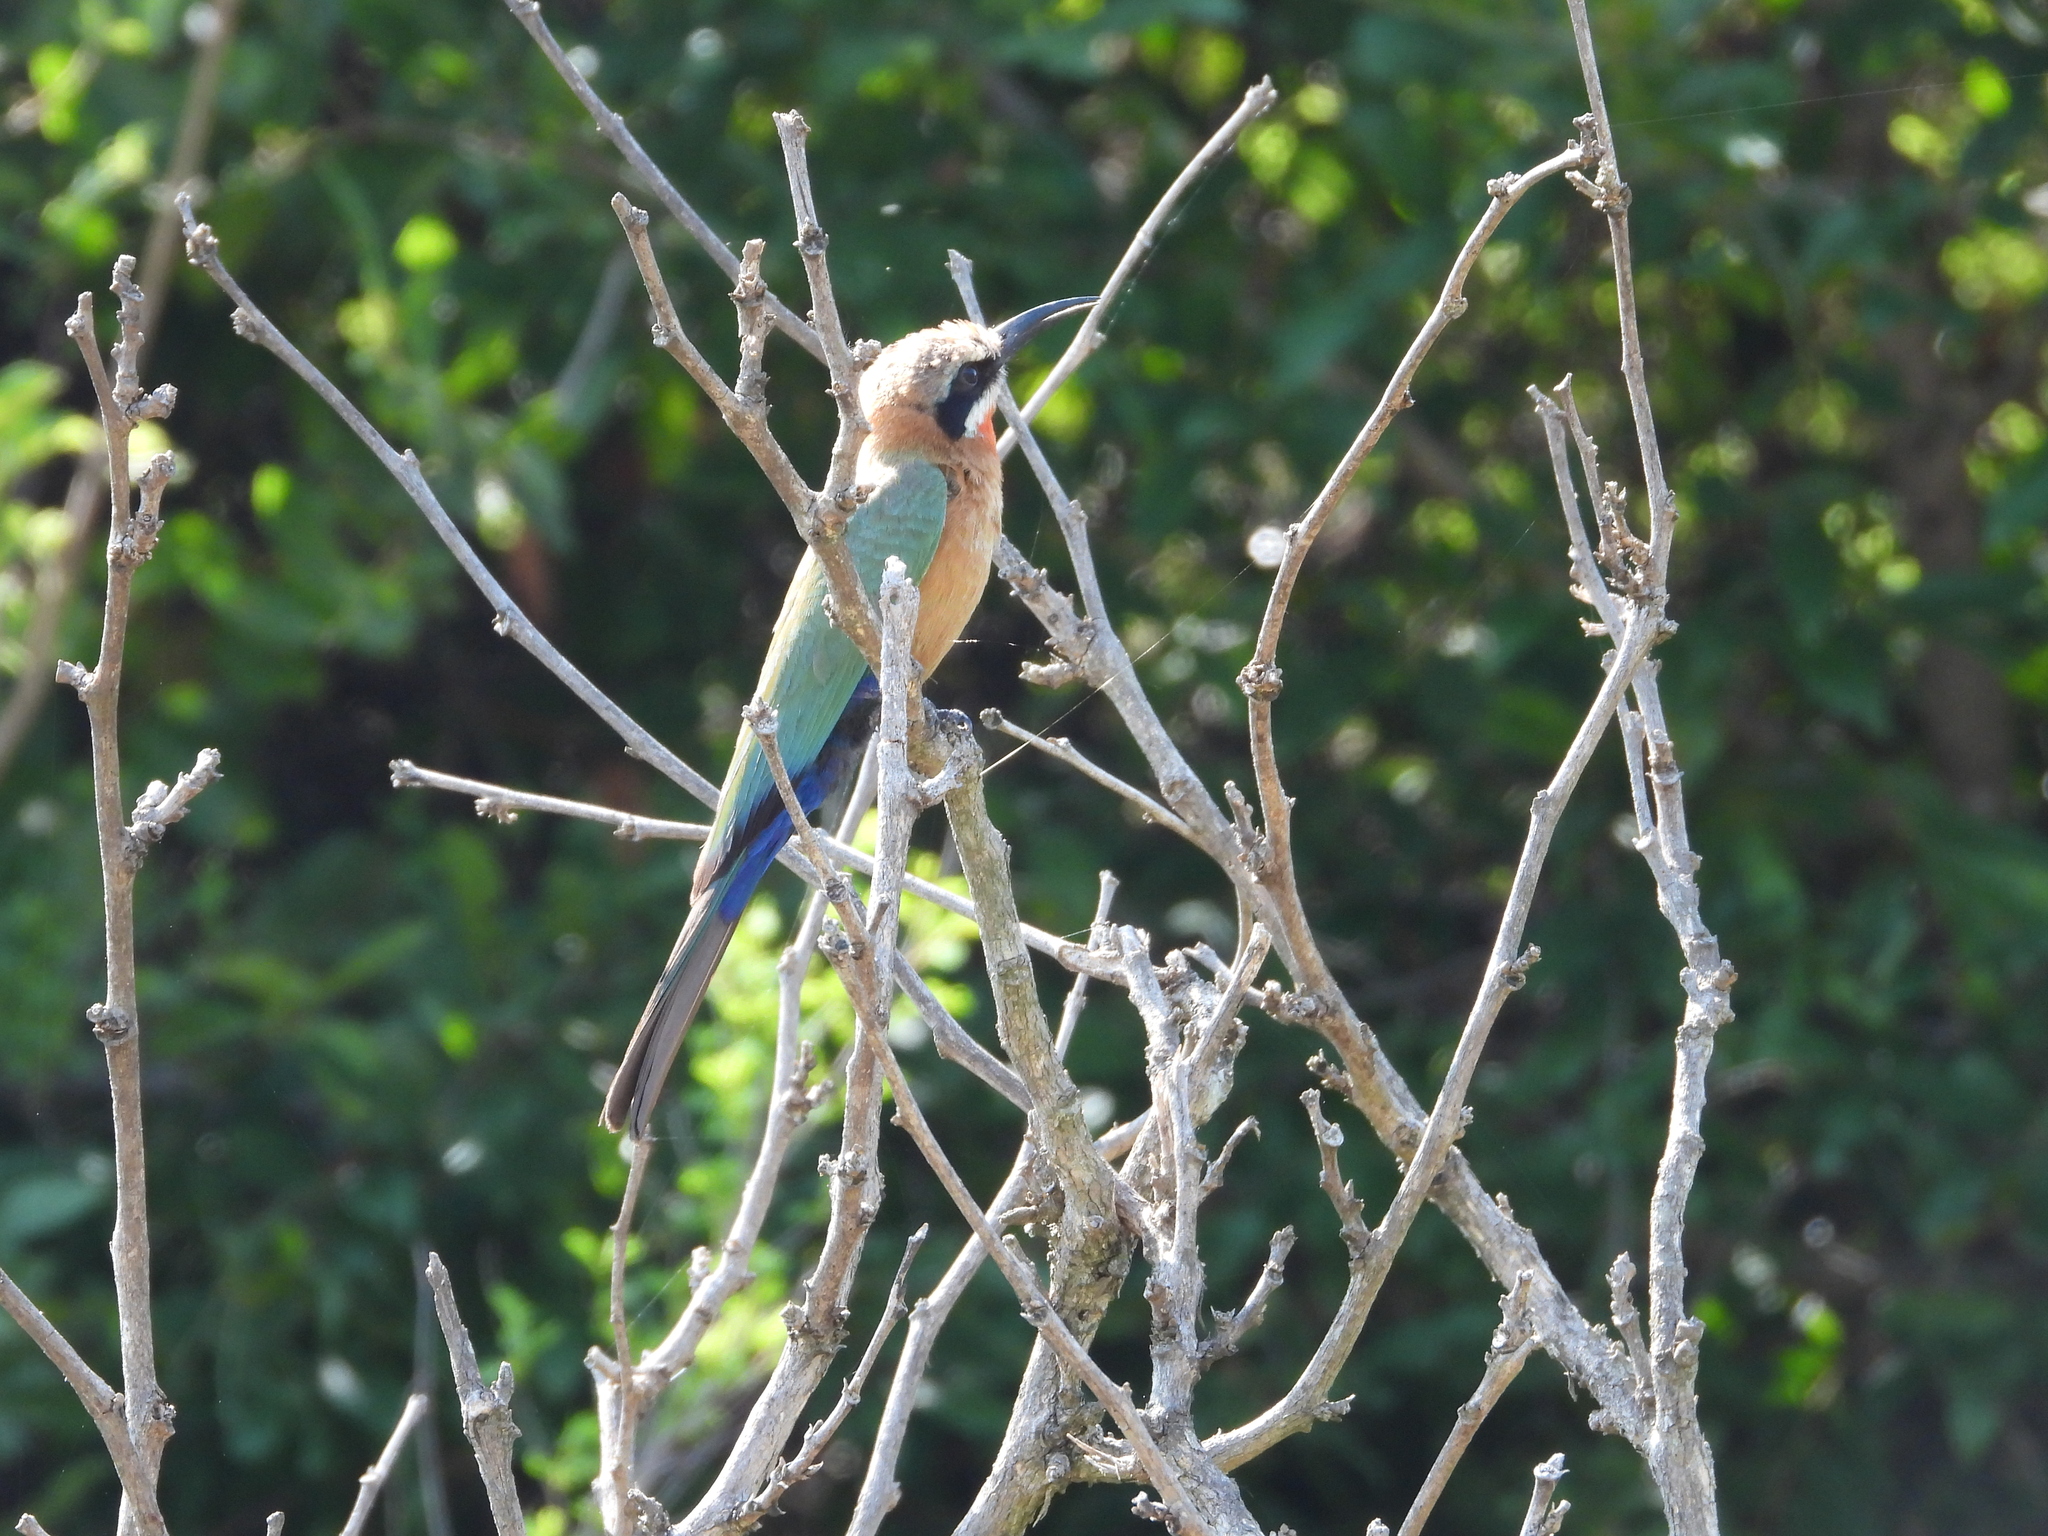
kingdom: Animalia
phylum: Chordata
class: Aves
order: Coraciiformes
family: Meropidae
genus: Merops
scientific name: Merops bullockoides
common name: White-fronted bee-eater
